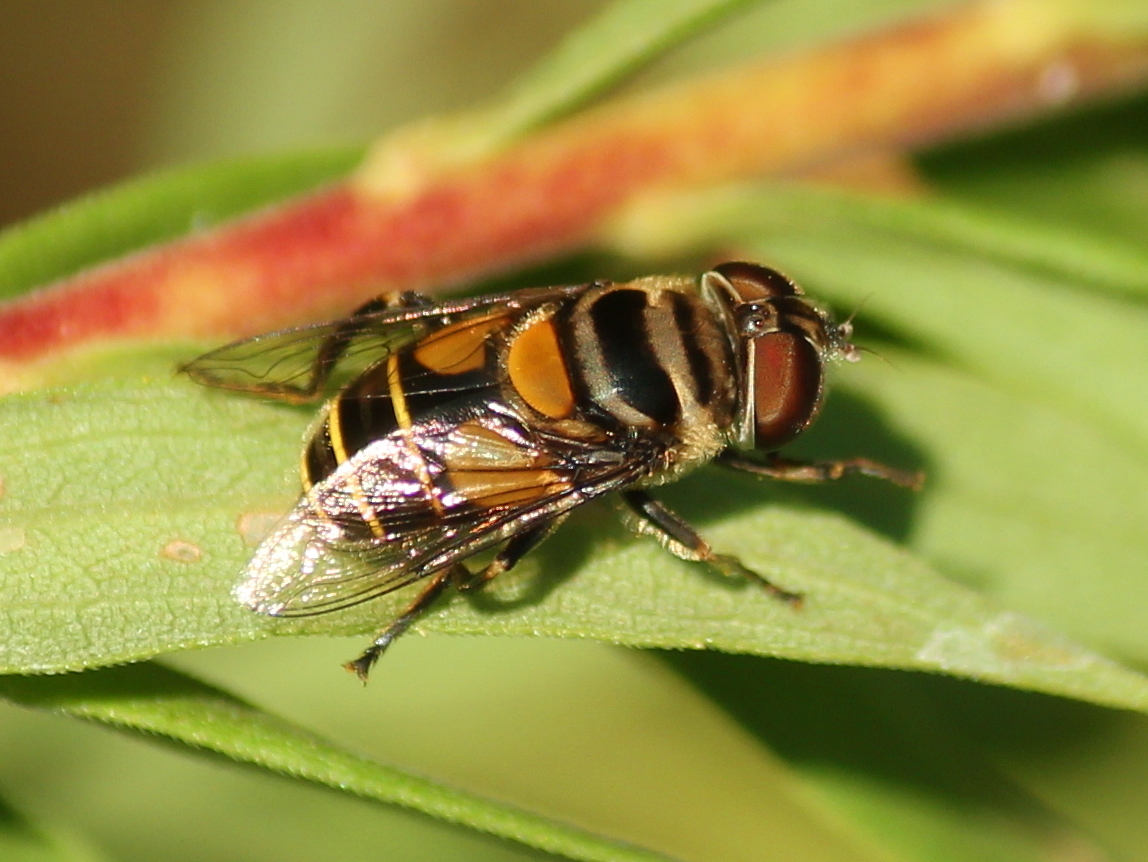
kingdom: Animalia
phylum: Arthropoda
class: Insecta
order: Diptera
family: Syrphidae
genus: Palpada
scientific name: Palpada agrorum
